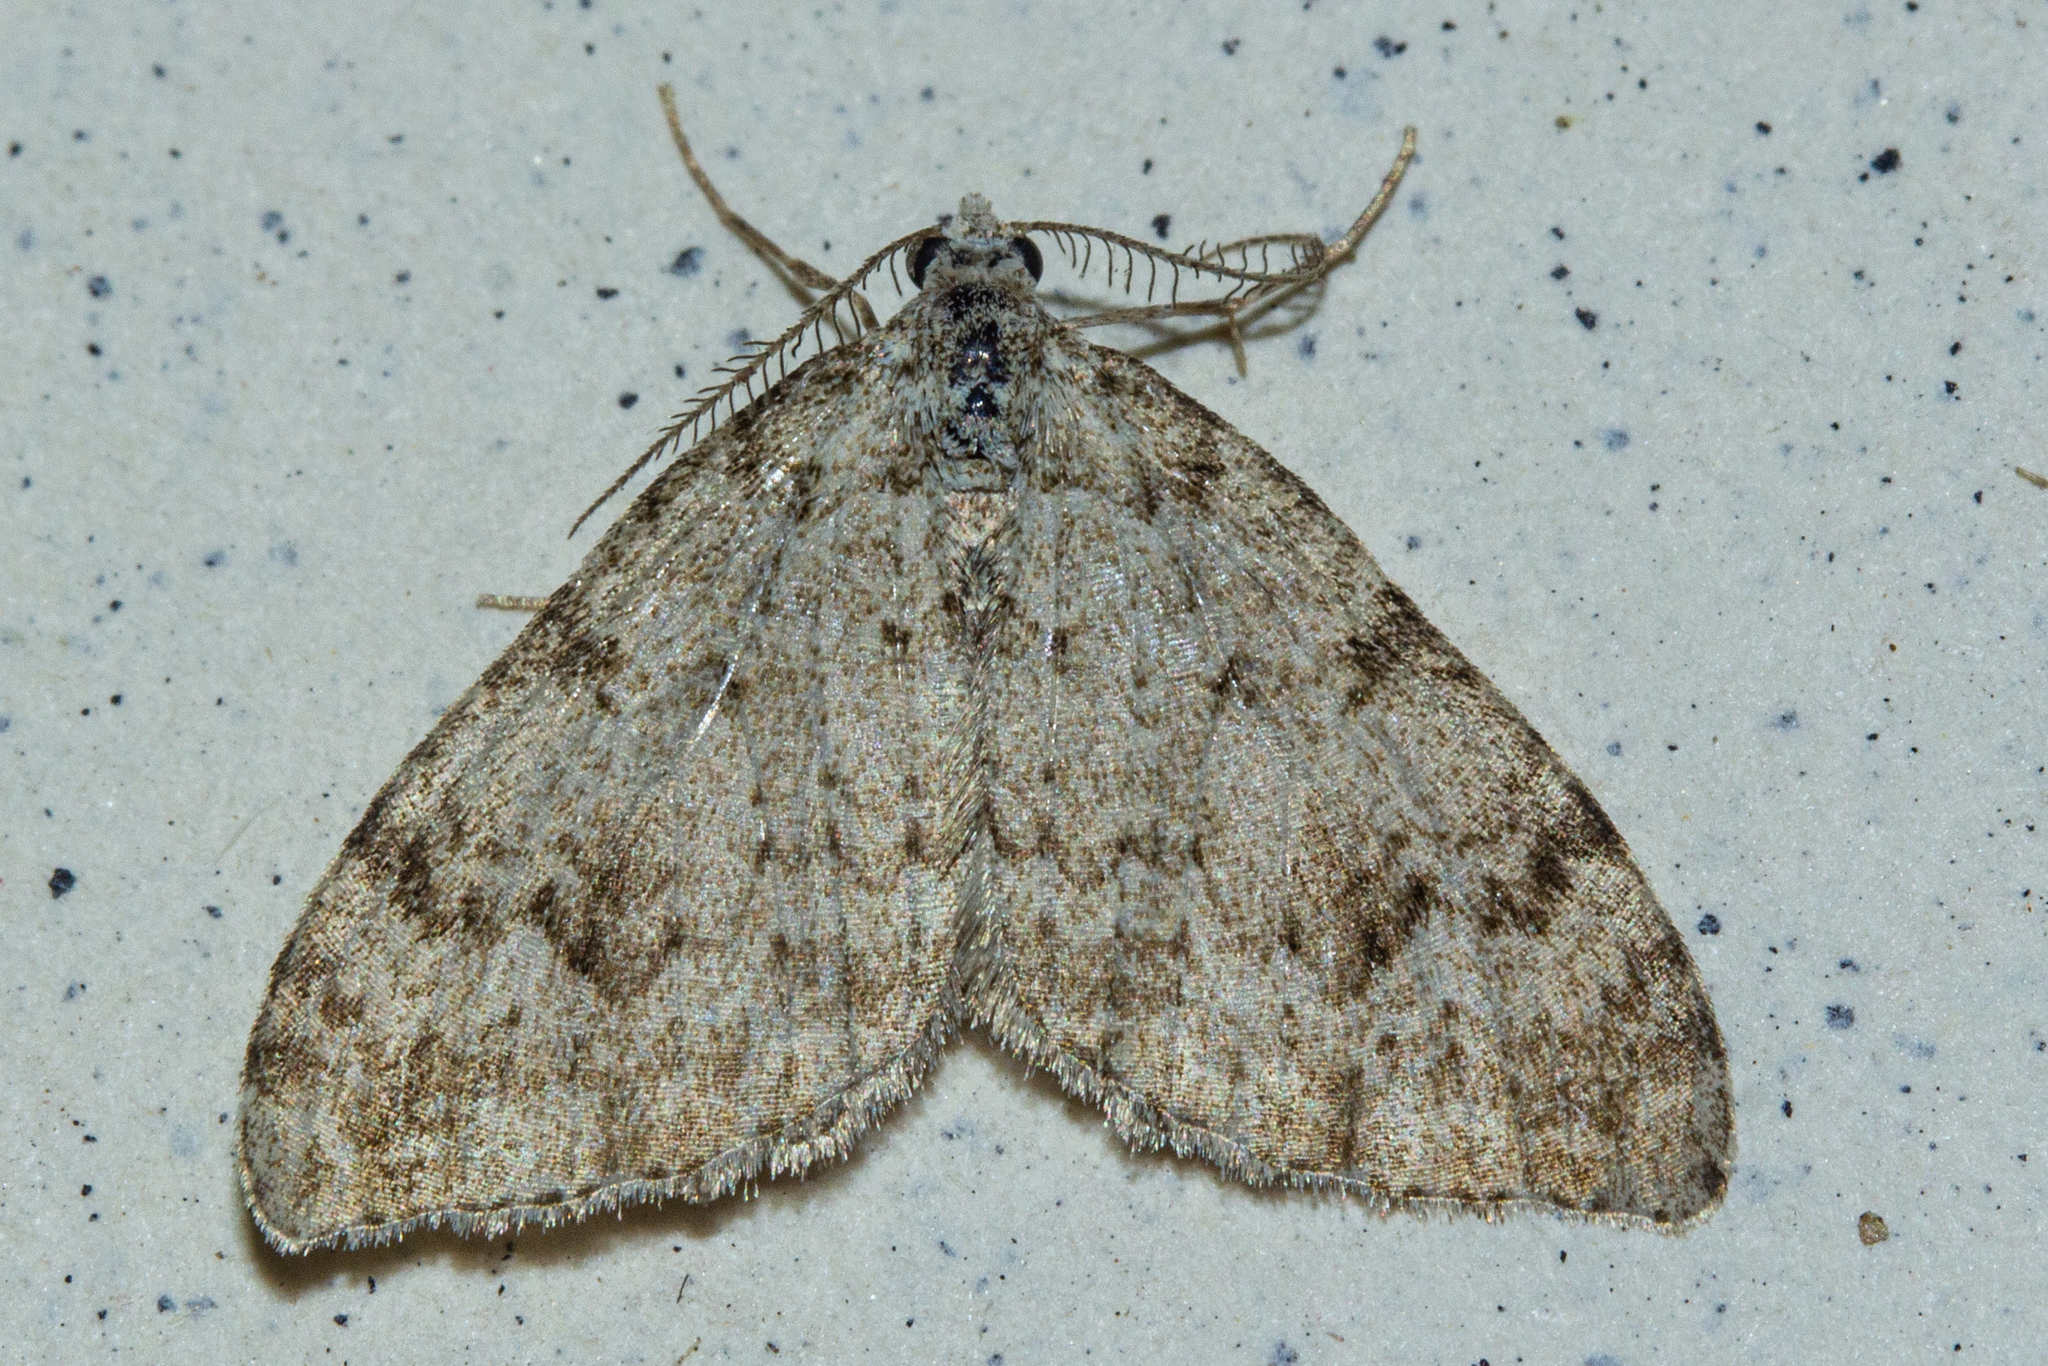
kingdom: Animalia
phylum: Arthropoda
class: Insecta
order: Lepidoptera
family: Geometridae
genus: Helastia
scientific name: Helastia cinerearia
